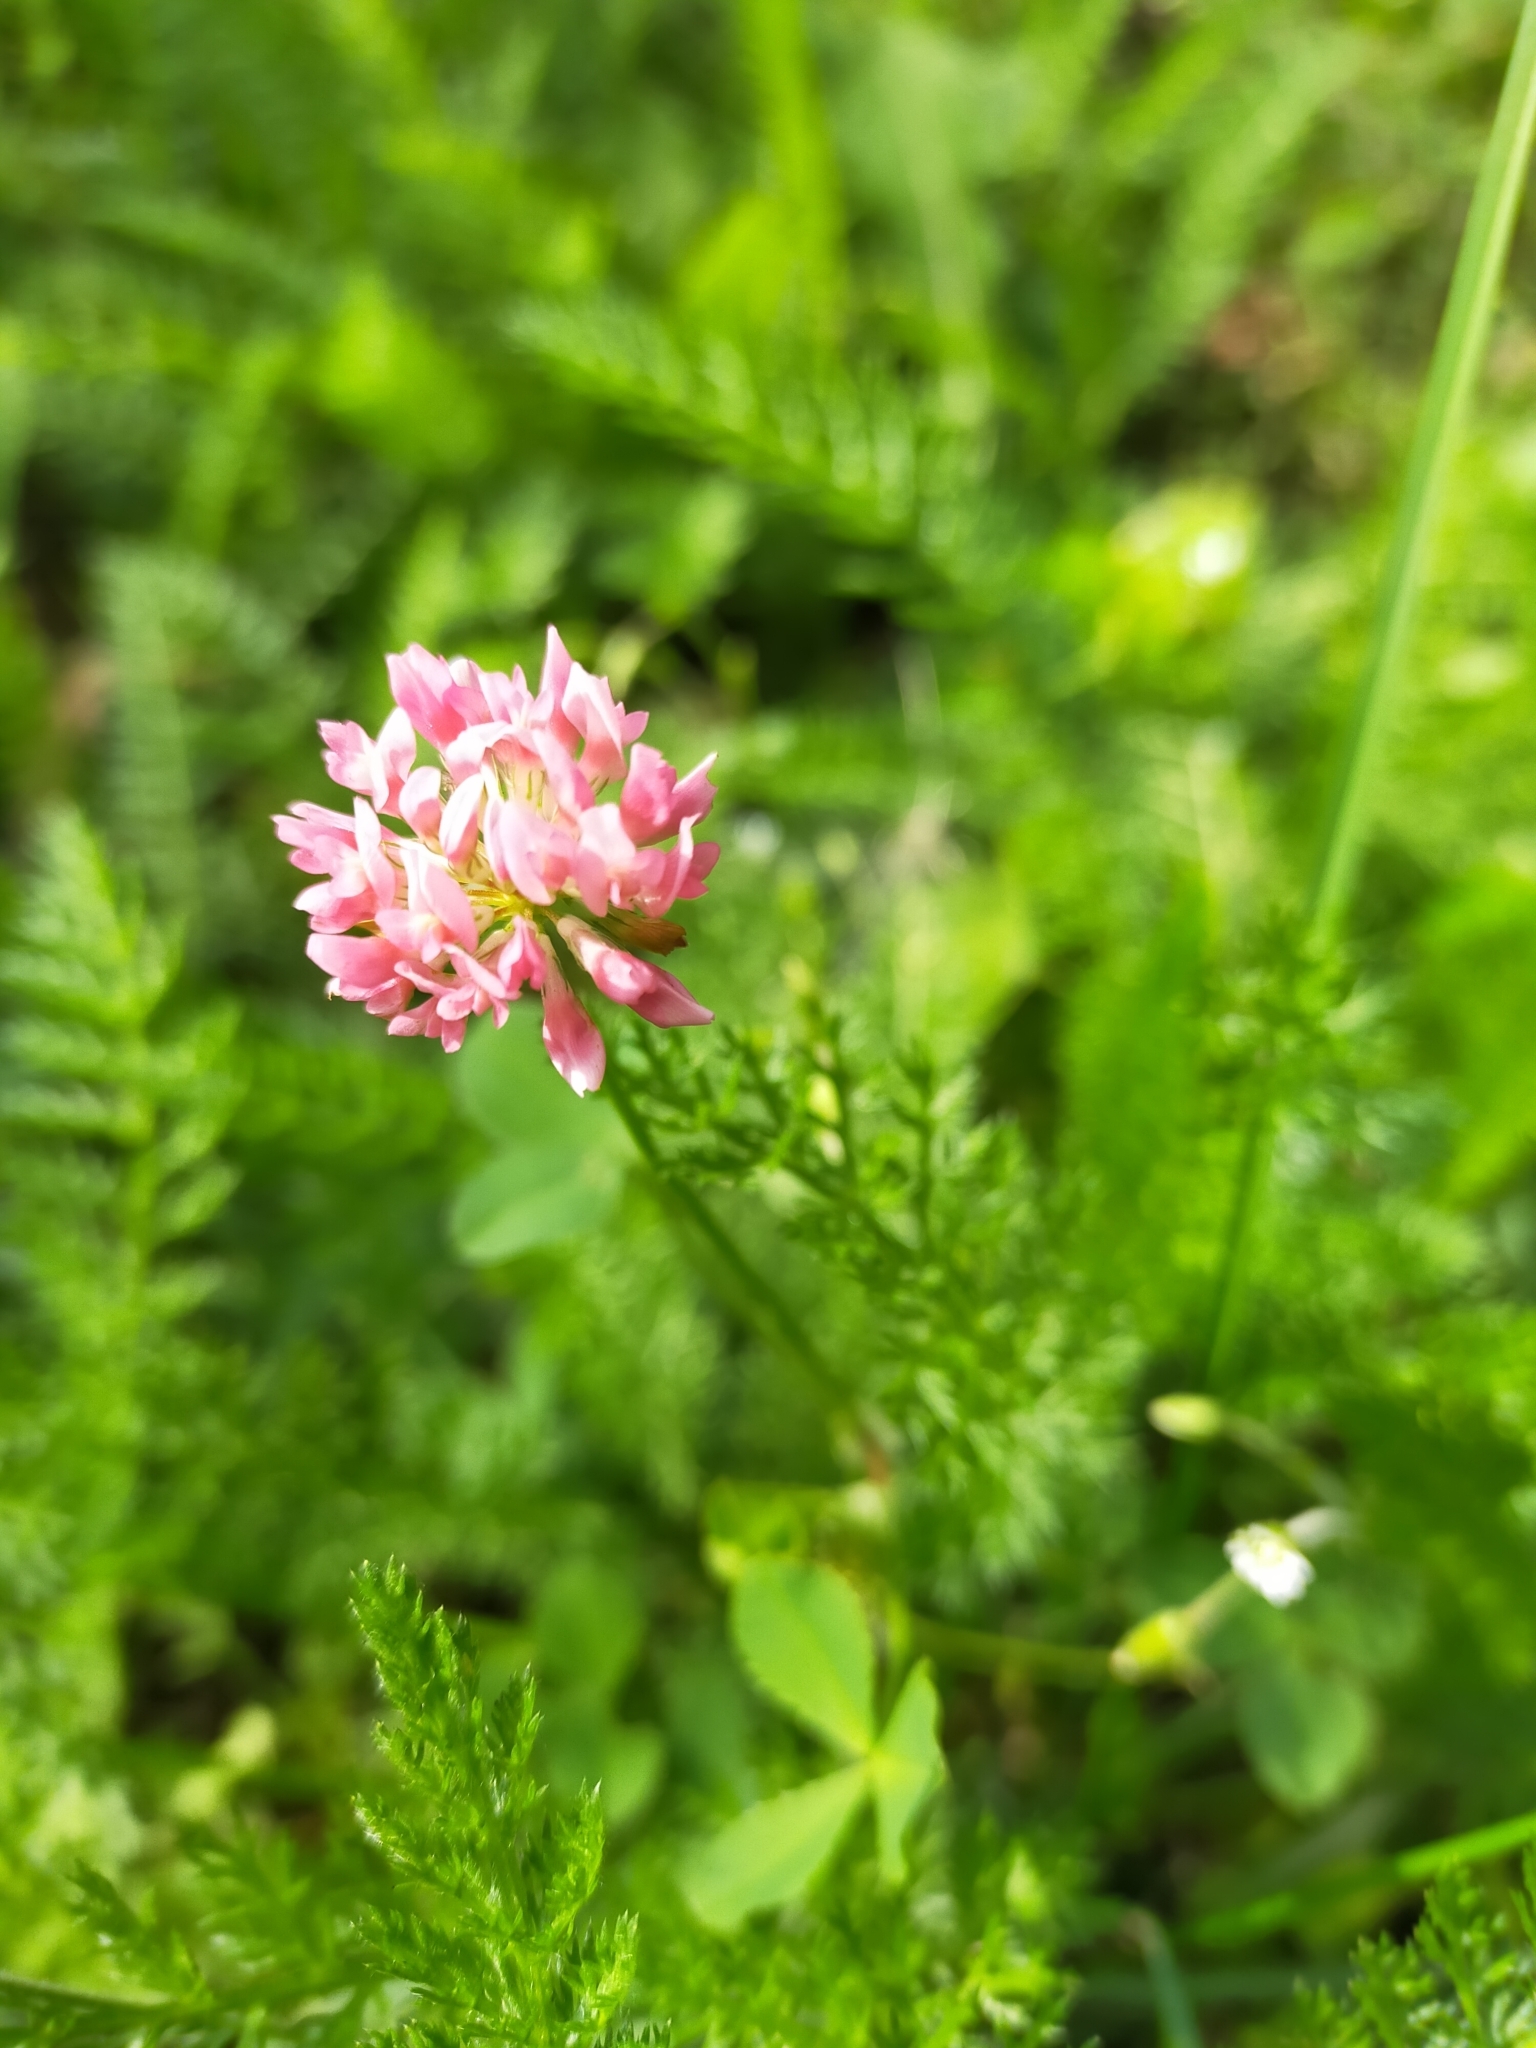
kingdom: Plantae
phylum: Tracheophyta
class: Magnoliopsida
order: Fabales
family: Fabaceae
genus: Trifolium
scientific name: Trifolium hybridum
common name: Alsike clover
